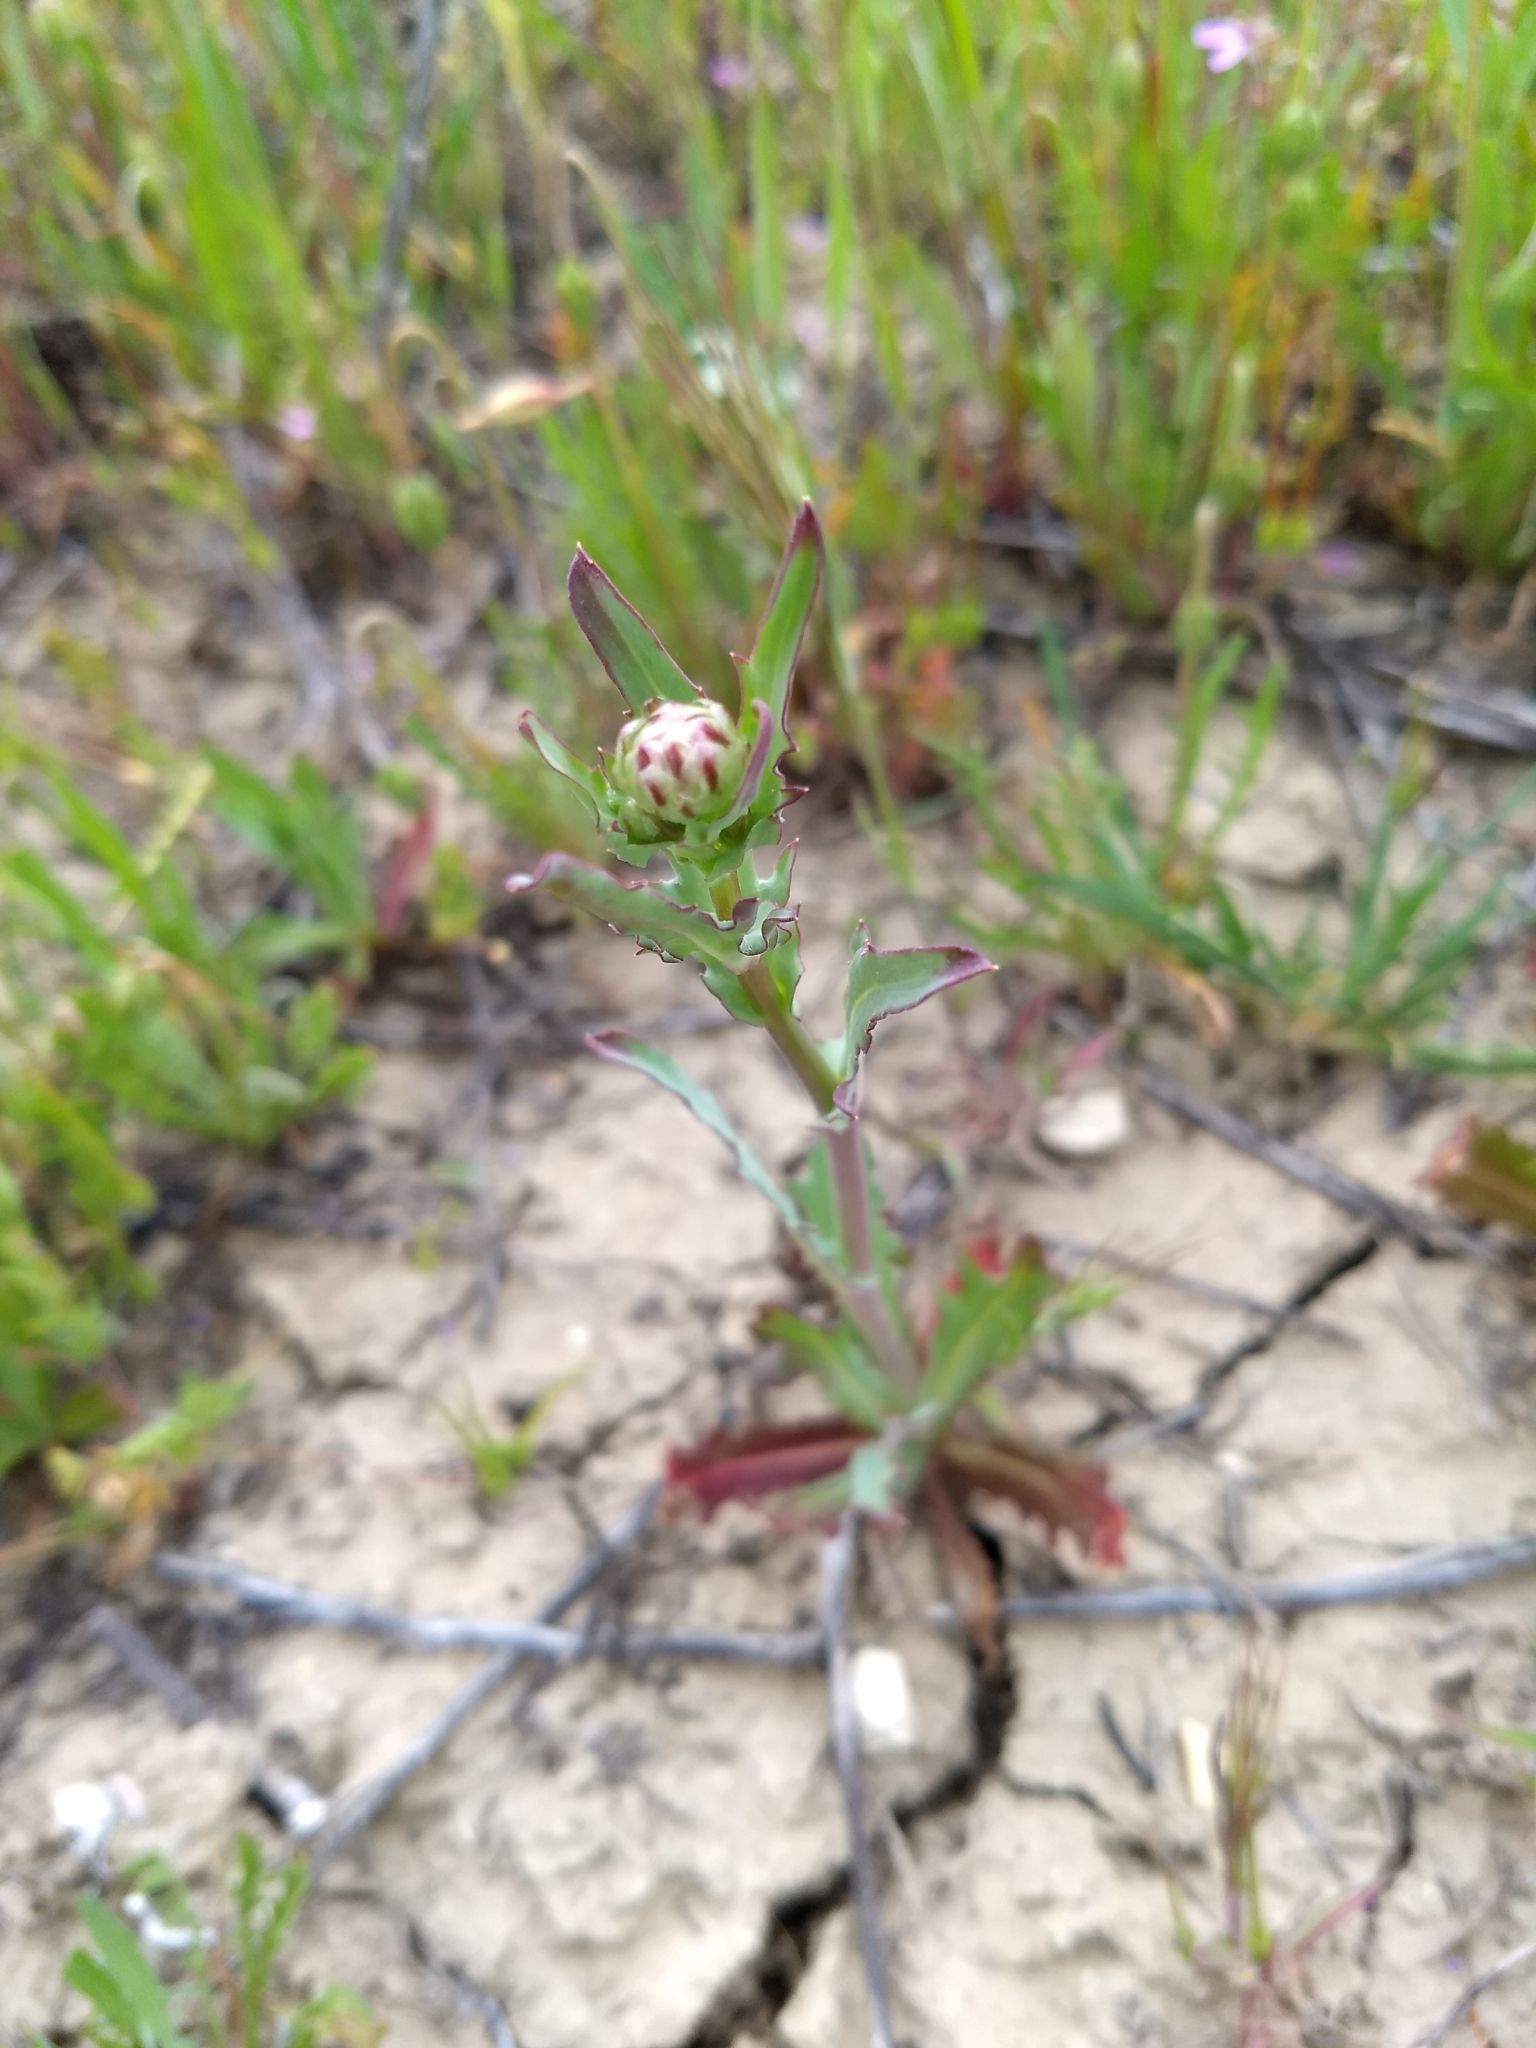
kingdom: Plantae
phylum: Tracheophyta
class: Magnoliopsida
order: Asterales
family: Asteraceae
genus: Malacothrix
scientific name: Malacothrix coulteri
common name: Snake's-head
